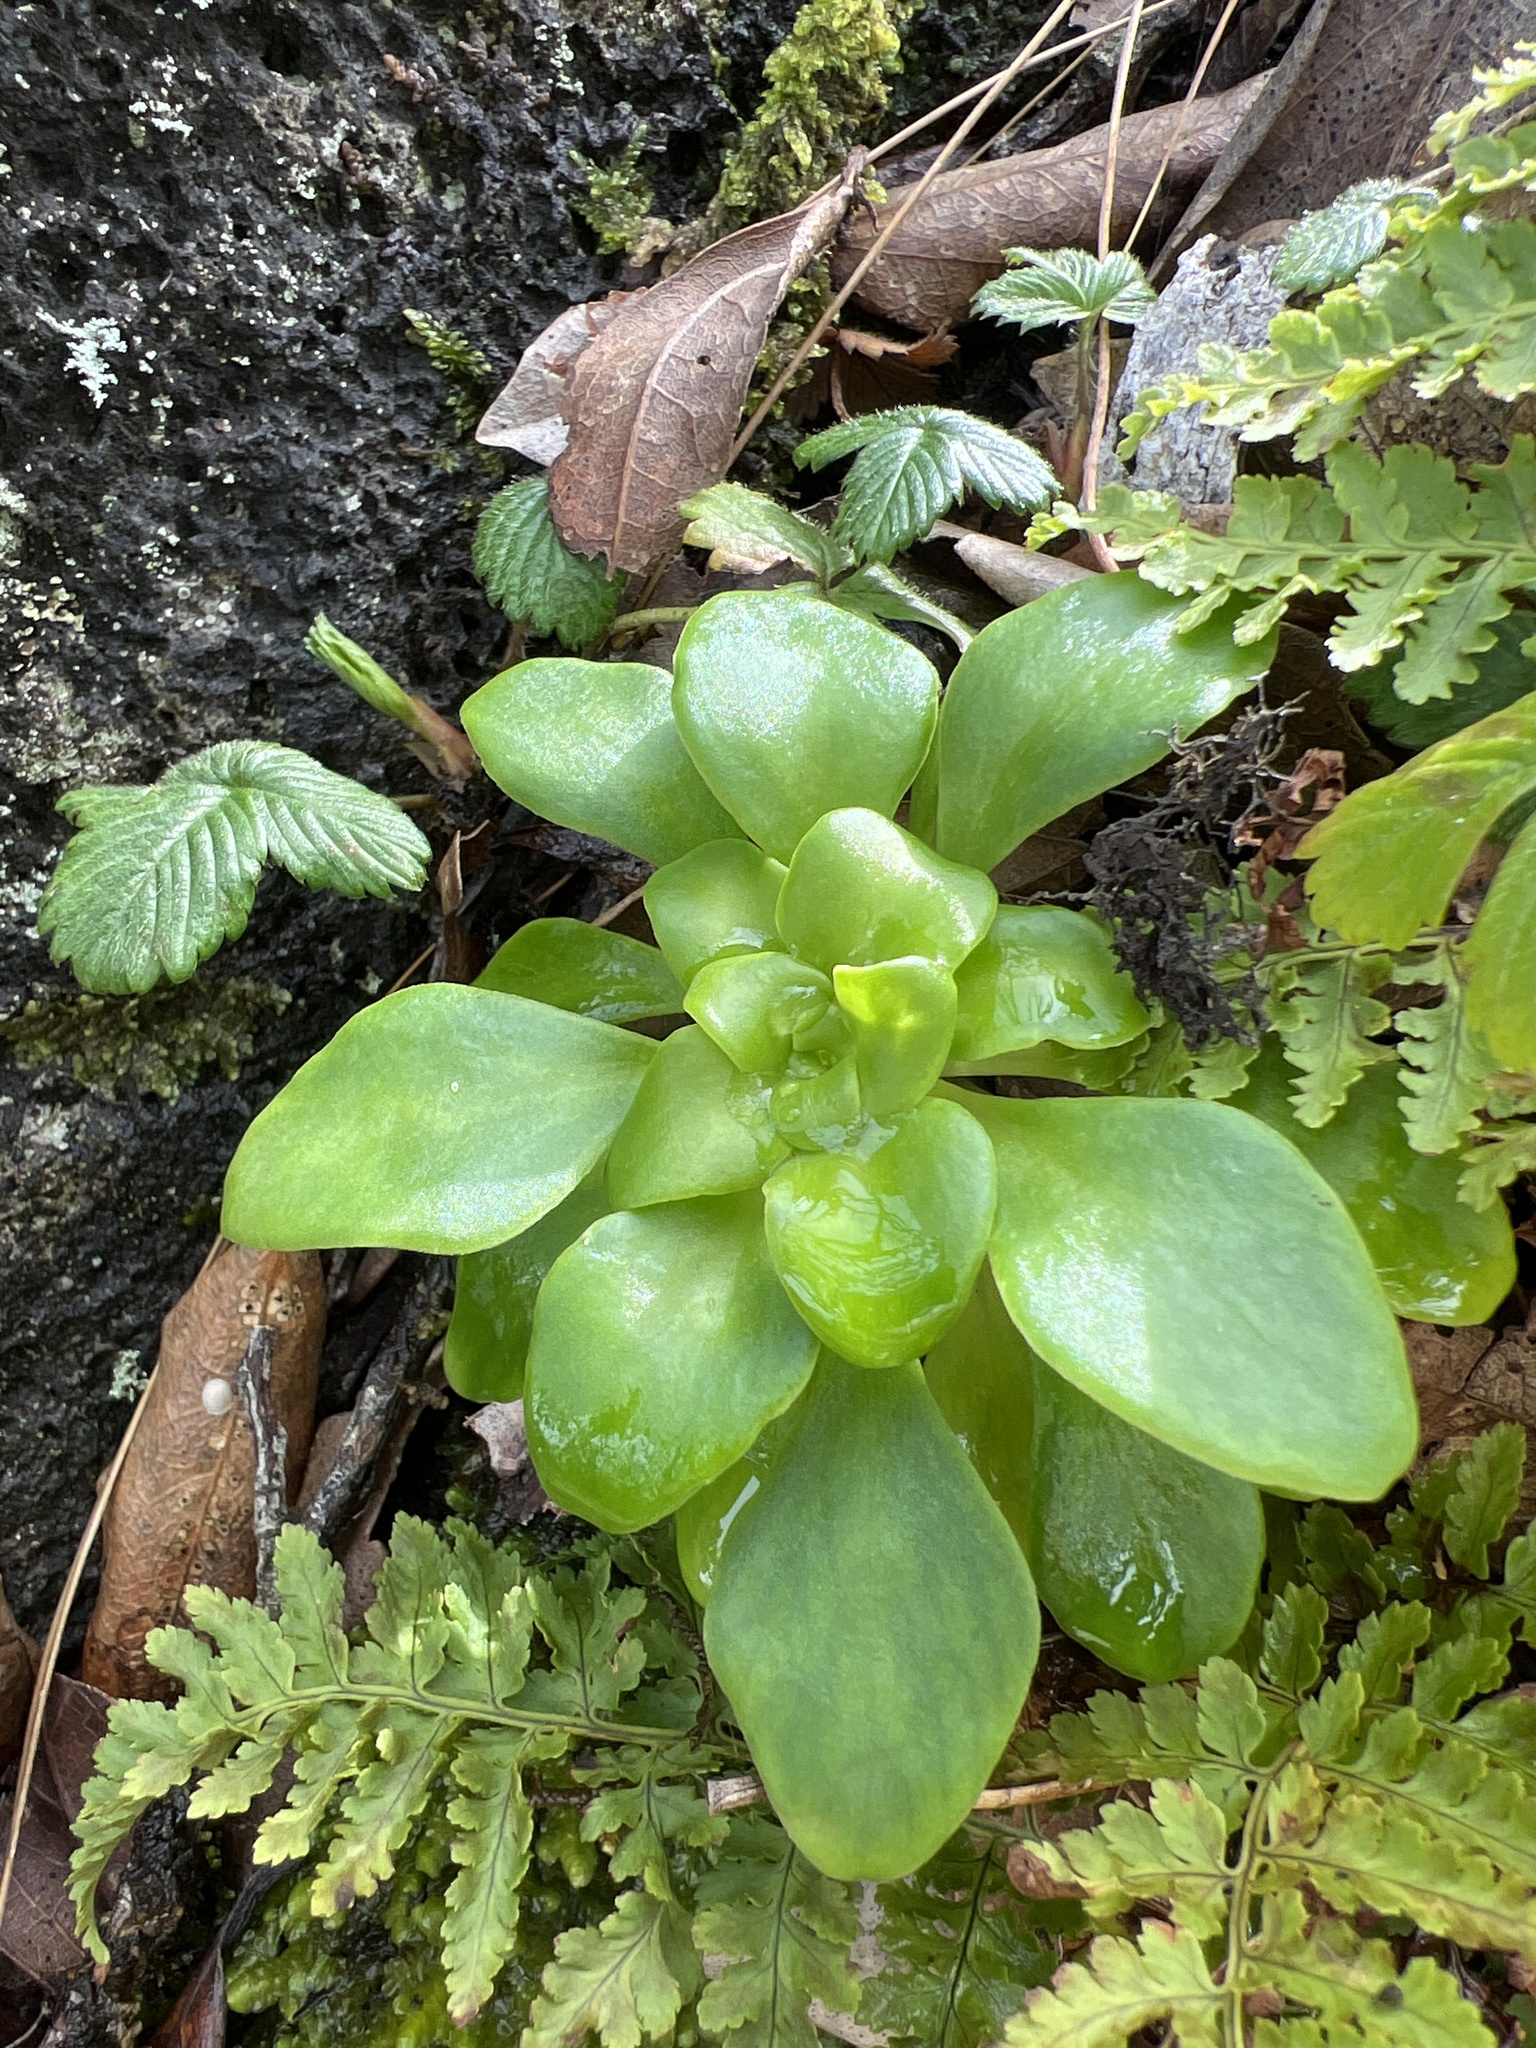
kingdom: Plantae
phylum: Tracheophyta
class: Magnoliopsida
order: Saxifragales
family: Crassulaceae
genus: Aichryson
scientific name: Aichryson divaricatum
